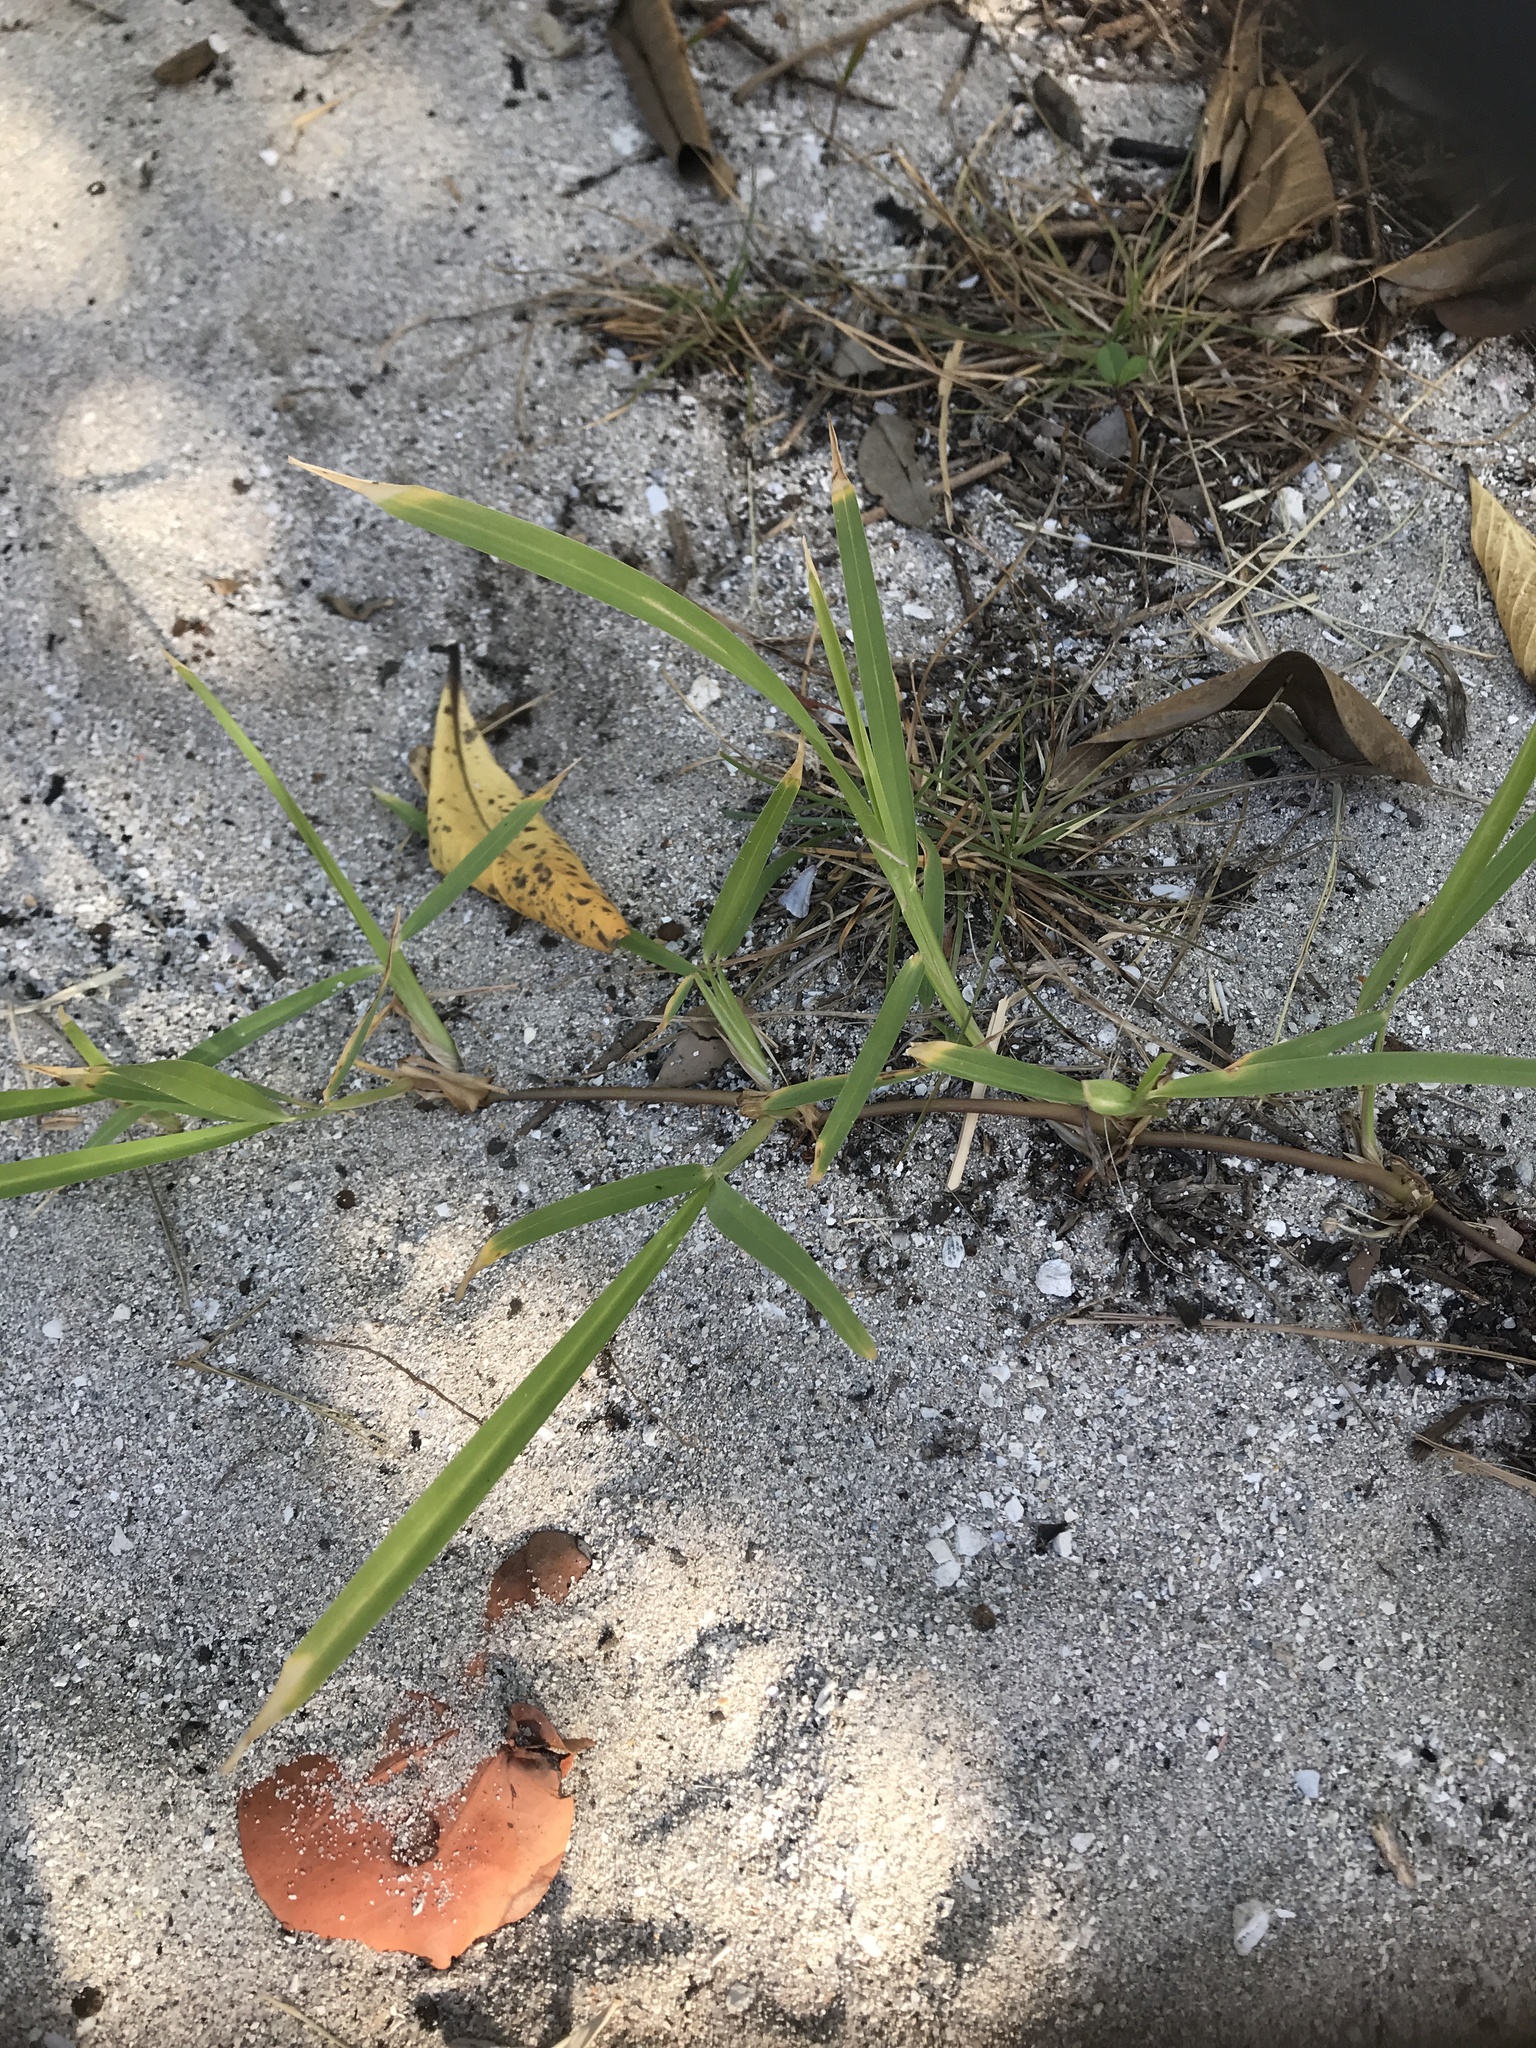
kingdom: Plantae
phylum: Tracheophyta
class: Liliopsida
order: Poales
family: Poaceae
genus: Stenotaphrum
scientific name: Stenotaphrum secundatum
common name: St. augustine grass
